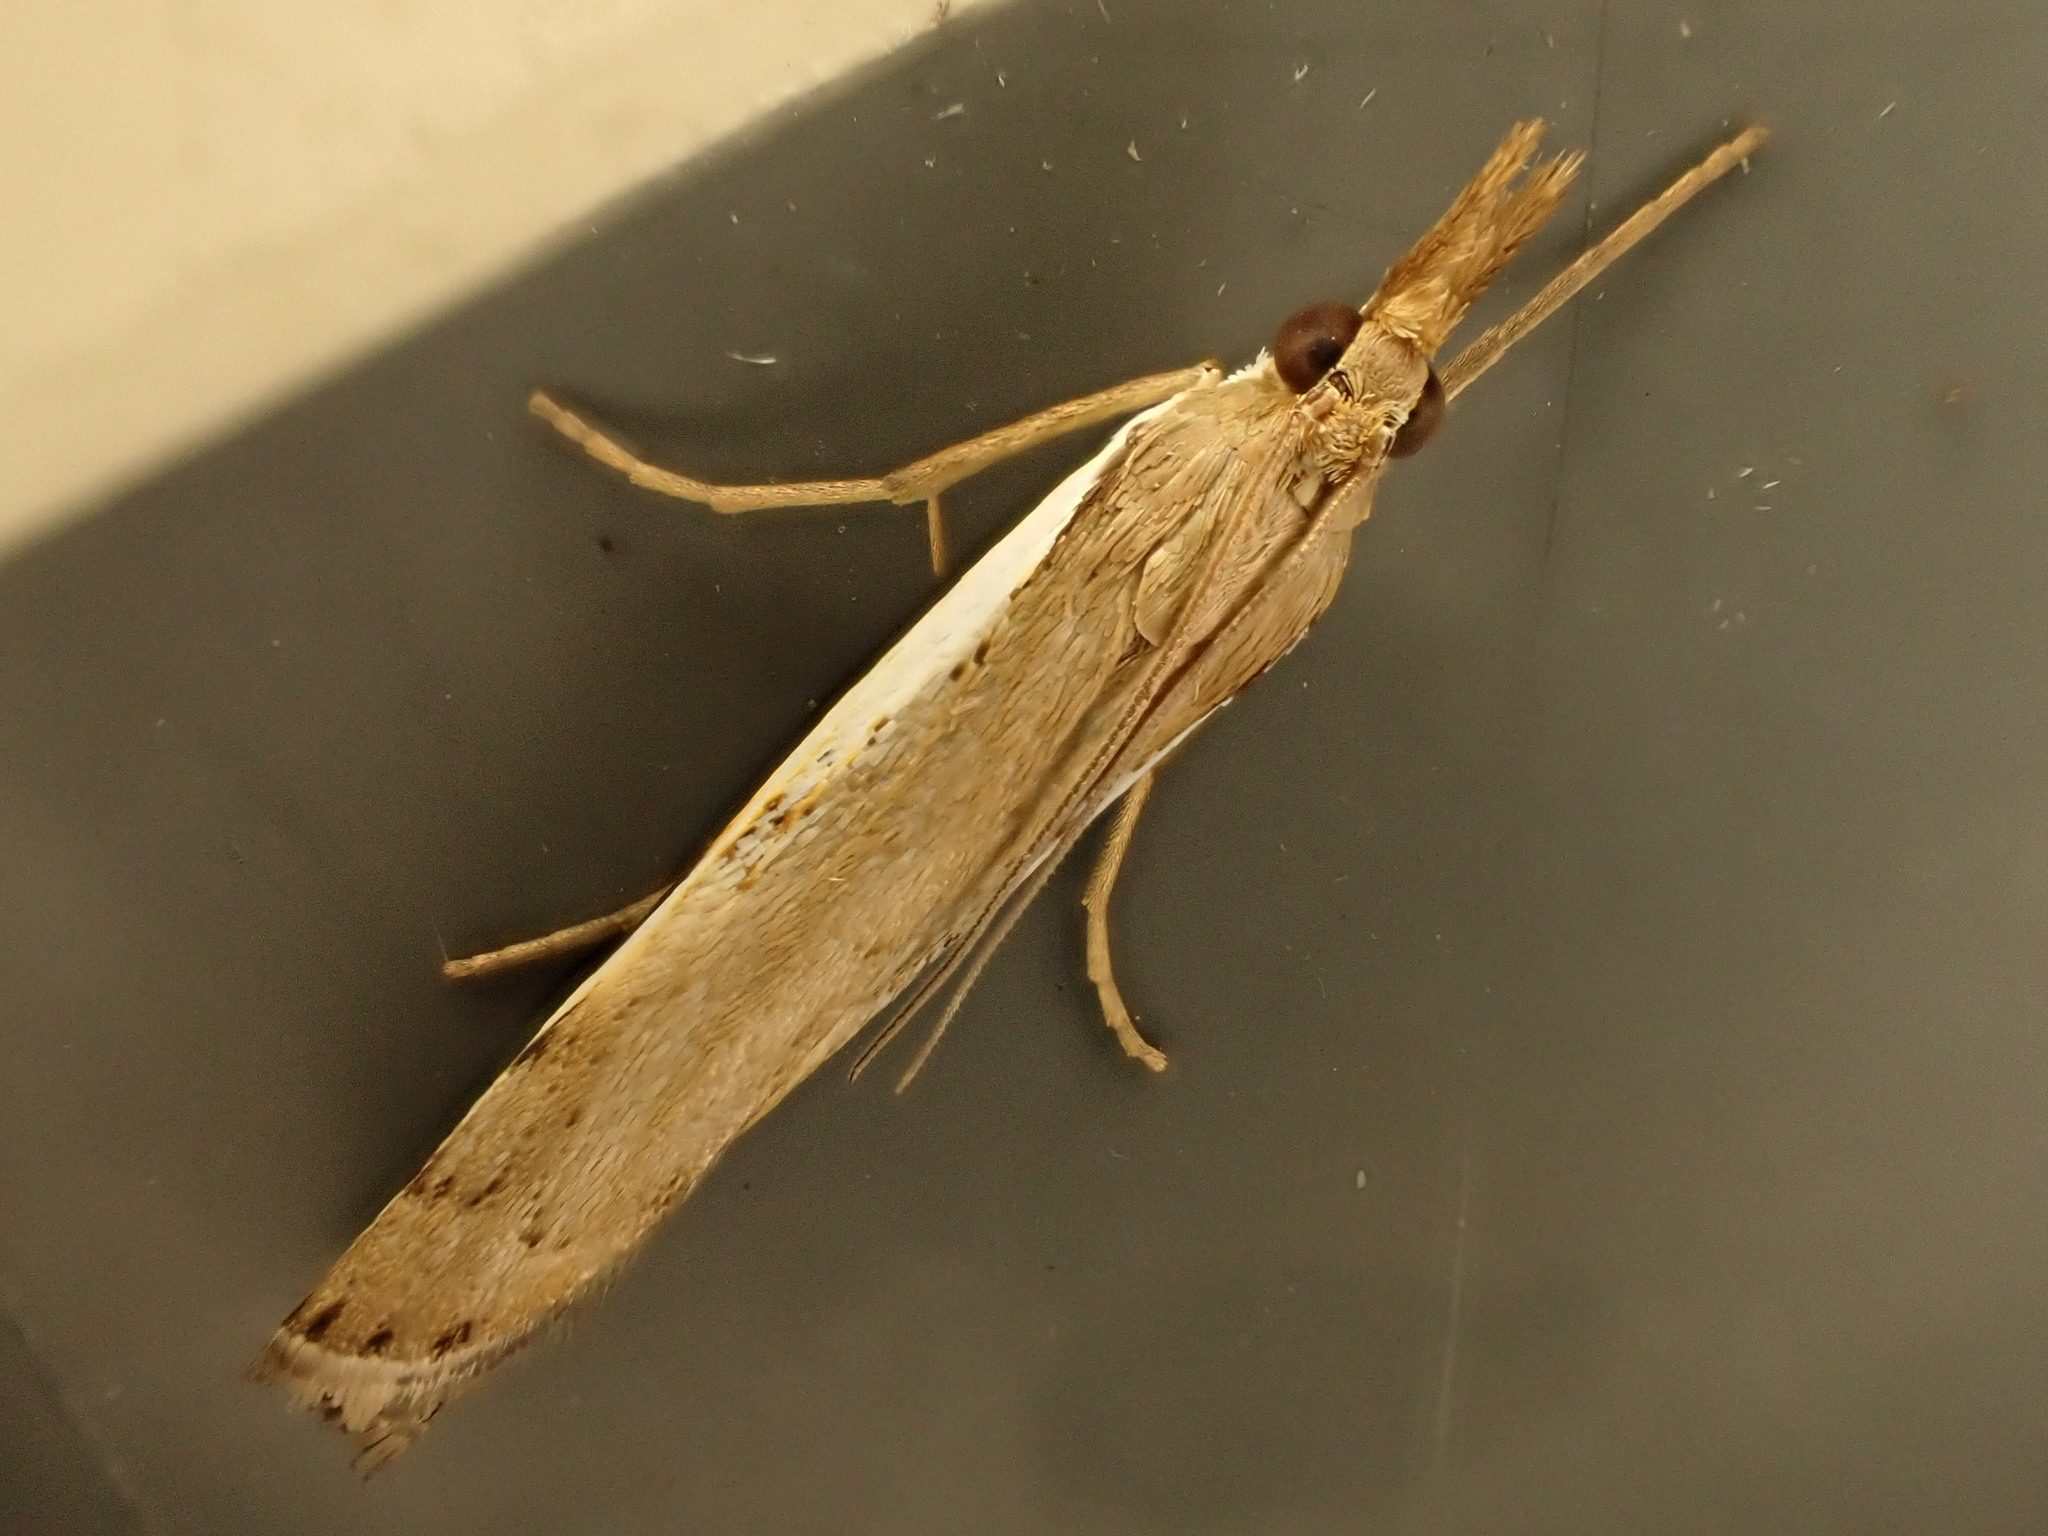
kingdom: Animalia
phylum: Arthropoda
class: Insecta
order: Lepidoptera
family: Crambidae
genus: Orocrambus
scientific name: Orocrambus flexuosellus
